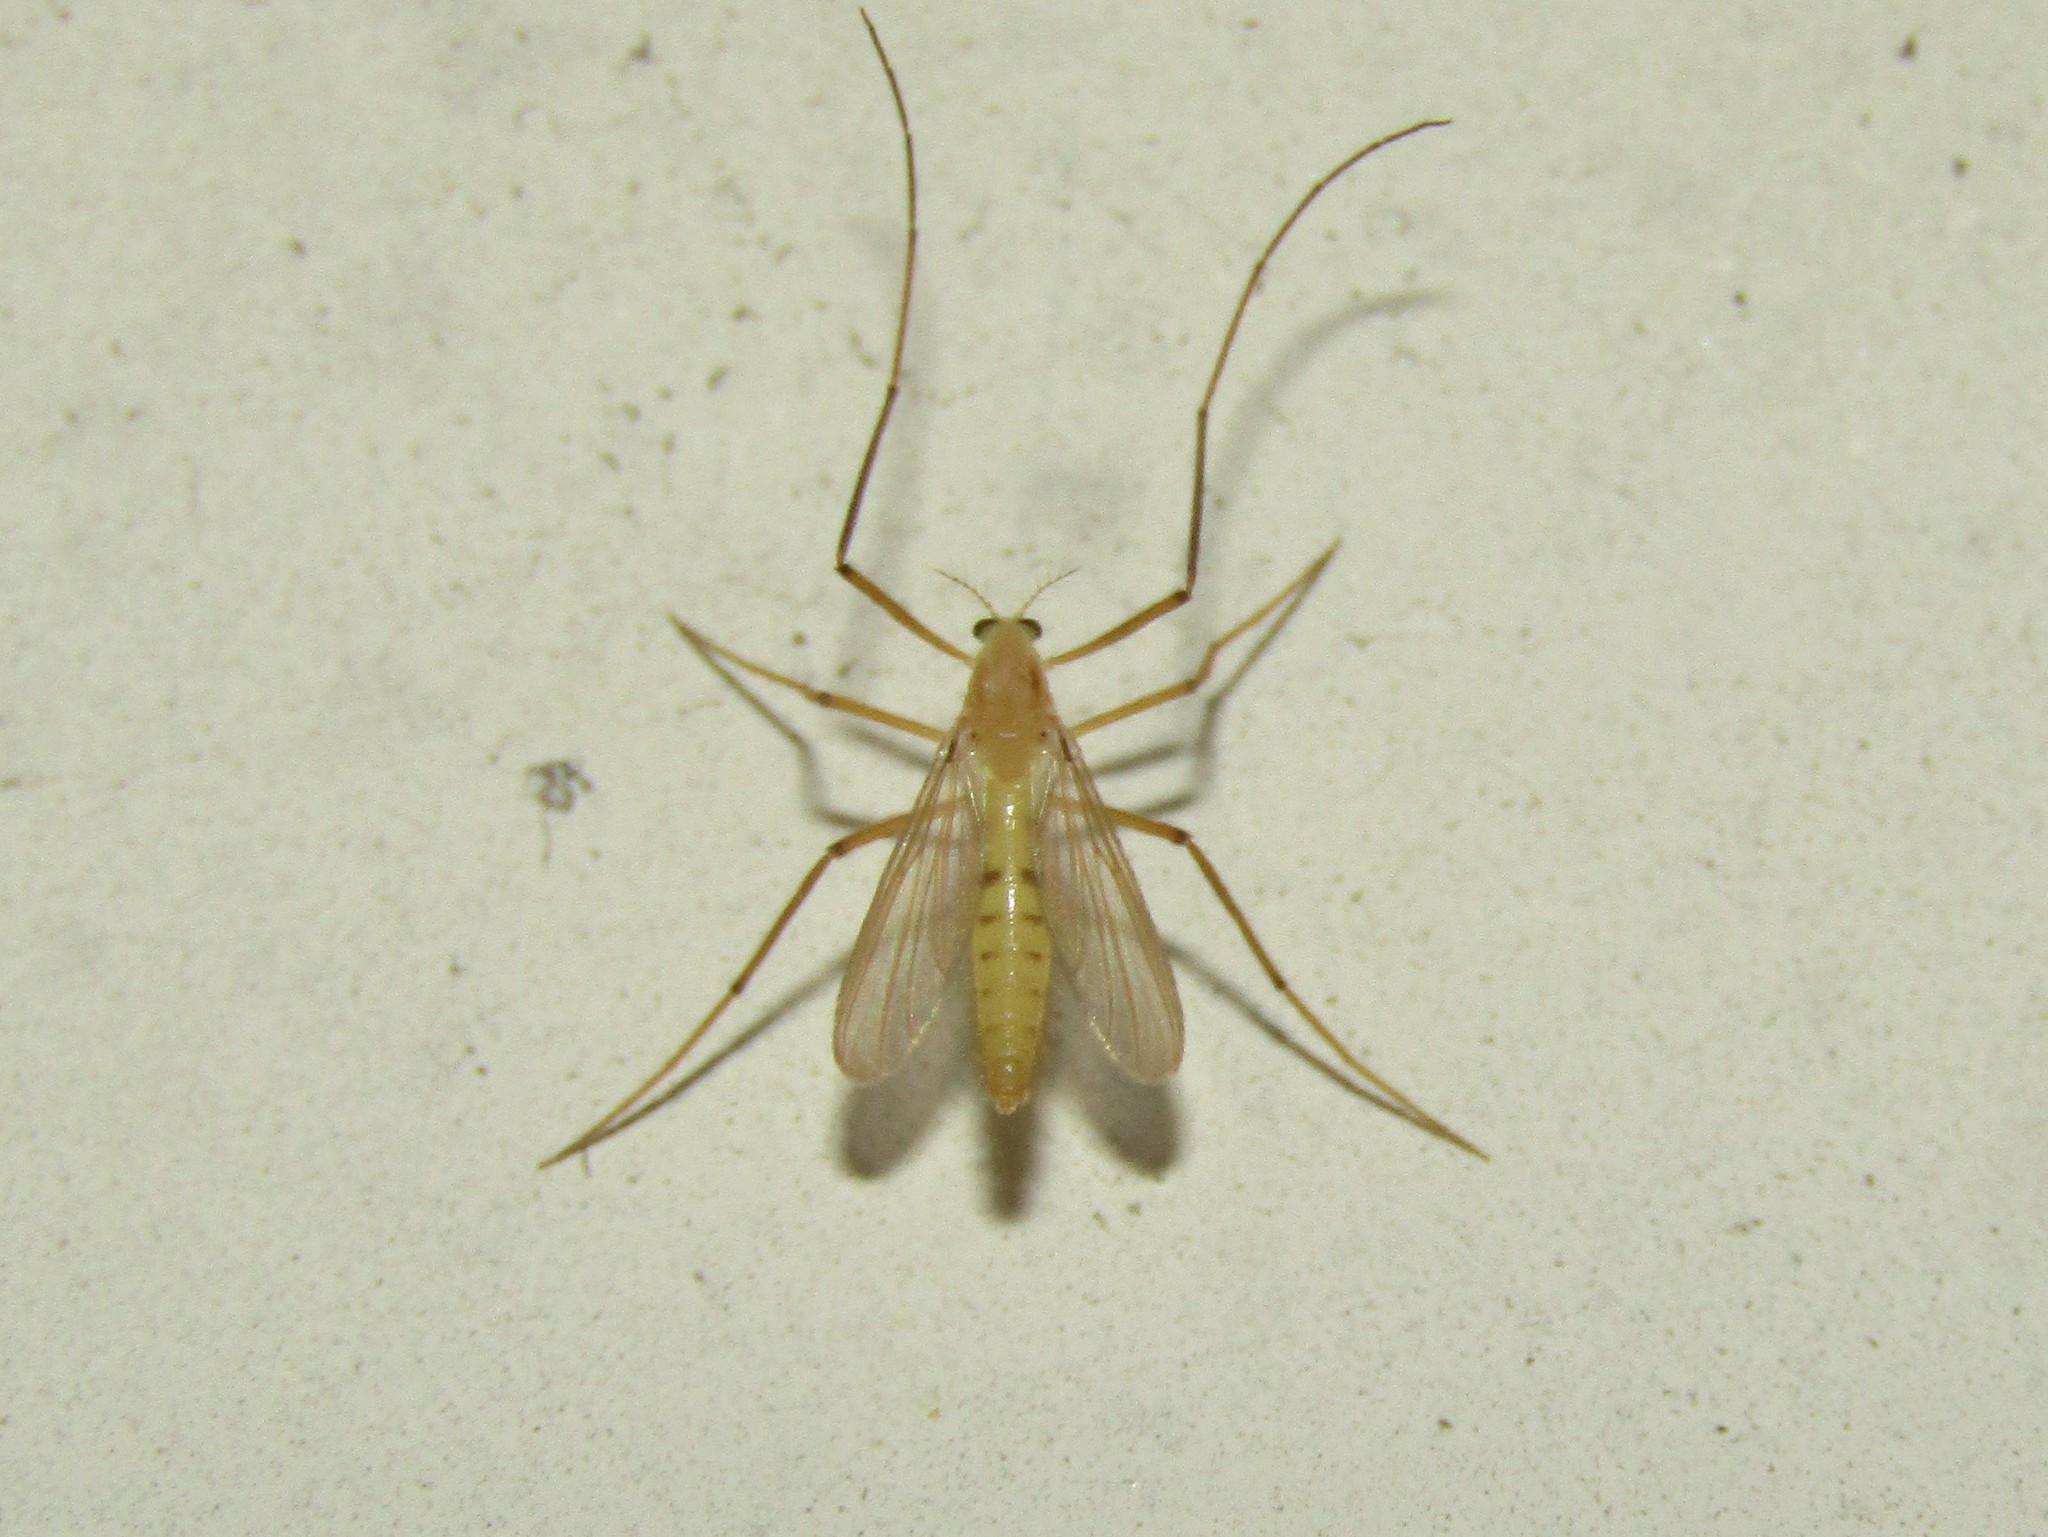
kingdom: Animalia
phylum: Arthropoda
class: Insecta
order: Diptera
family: Chironomidae
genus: Xylotopus
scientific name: Xylotopus par
